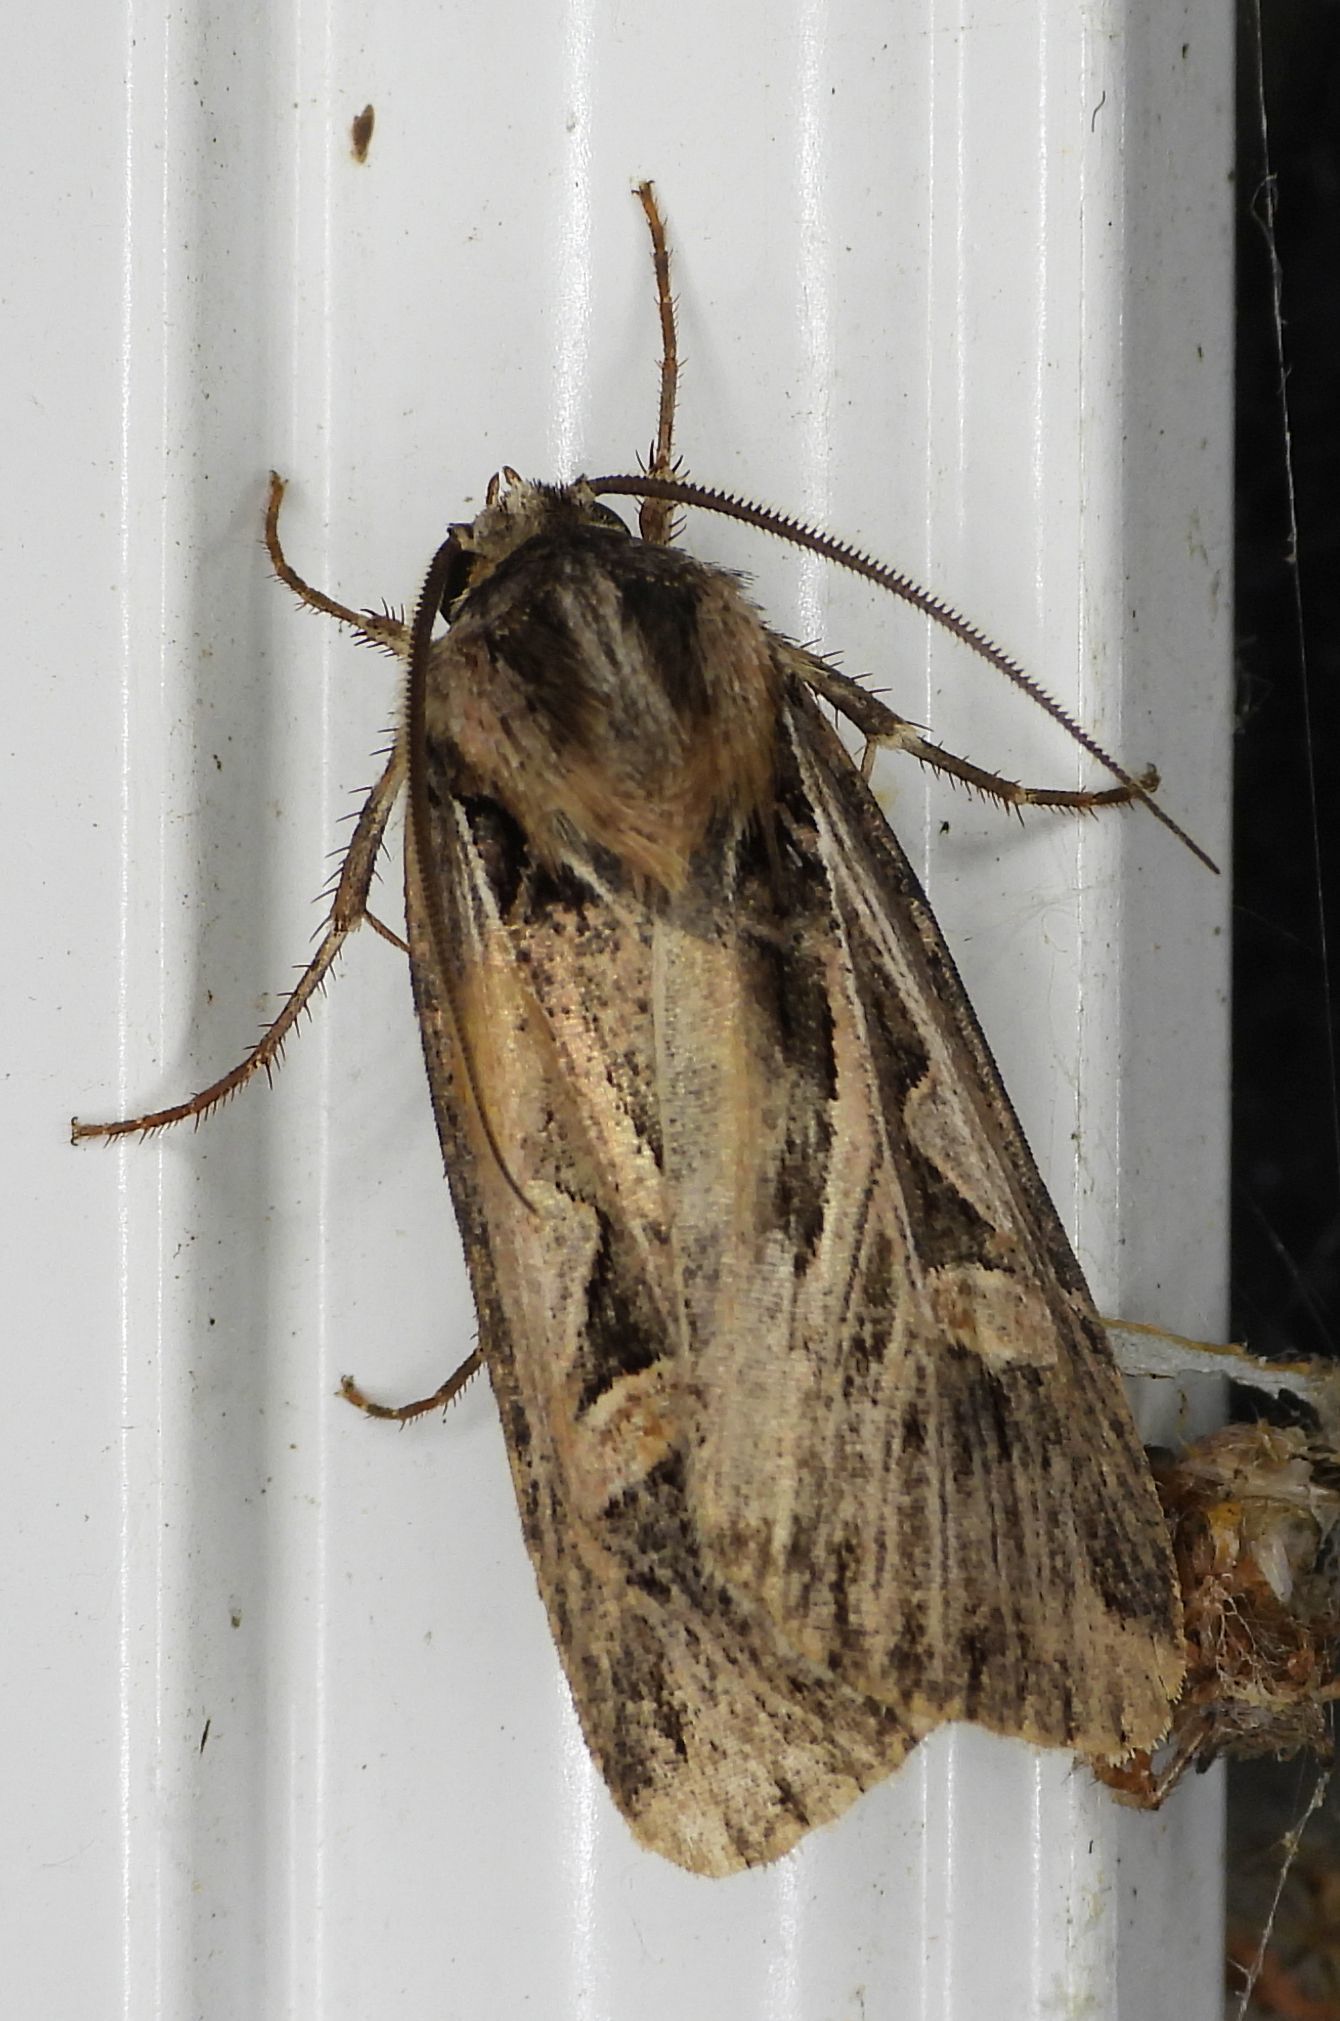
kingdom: Animalia
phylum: Arthropoda
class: Insecta
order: Lepidoptera
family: Noctuidae
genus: Feltia
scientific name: Feltia jaculifera
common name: Dingy cutworm moth
